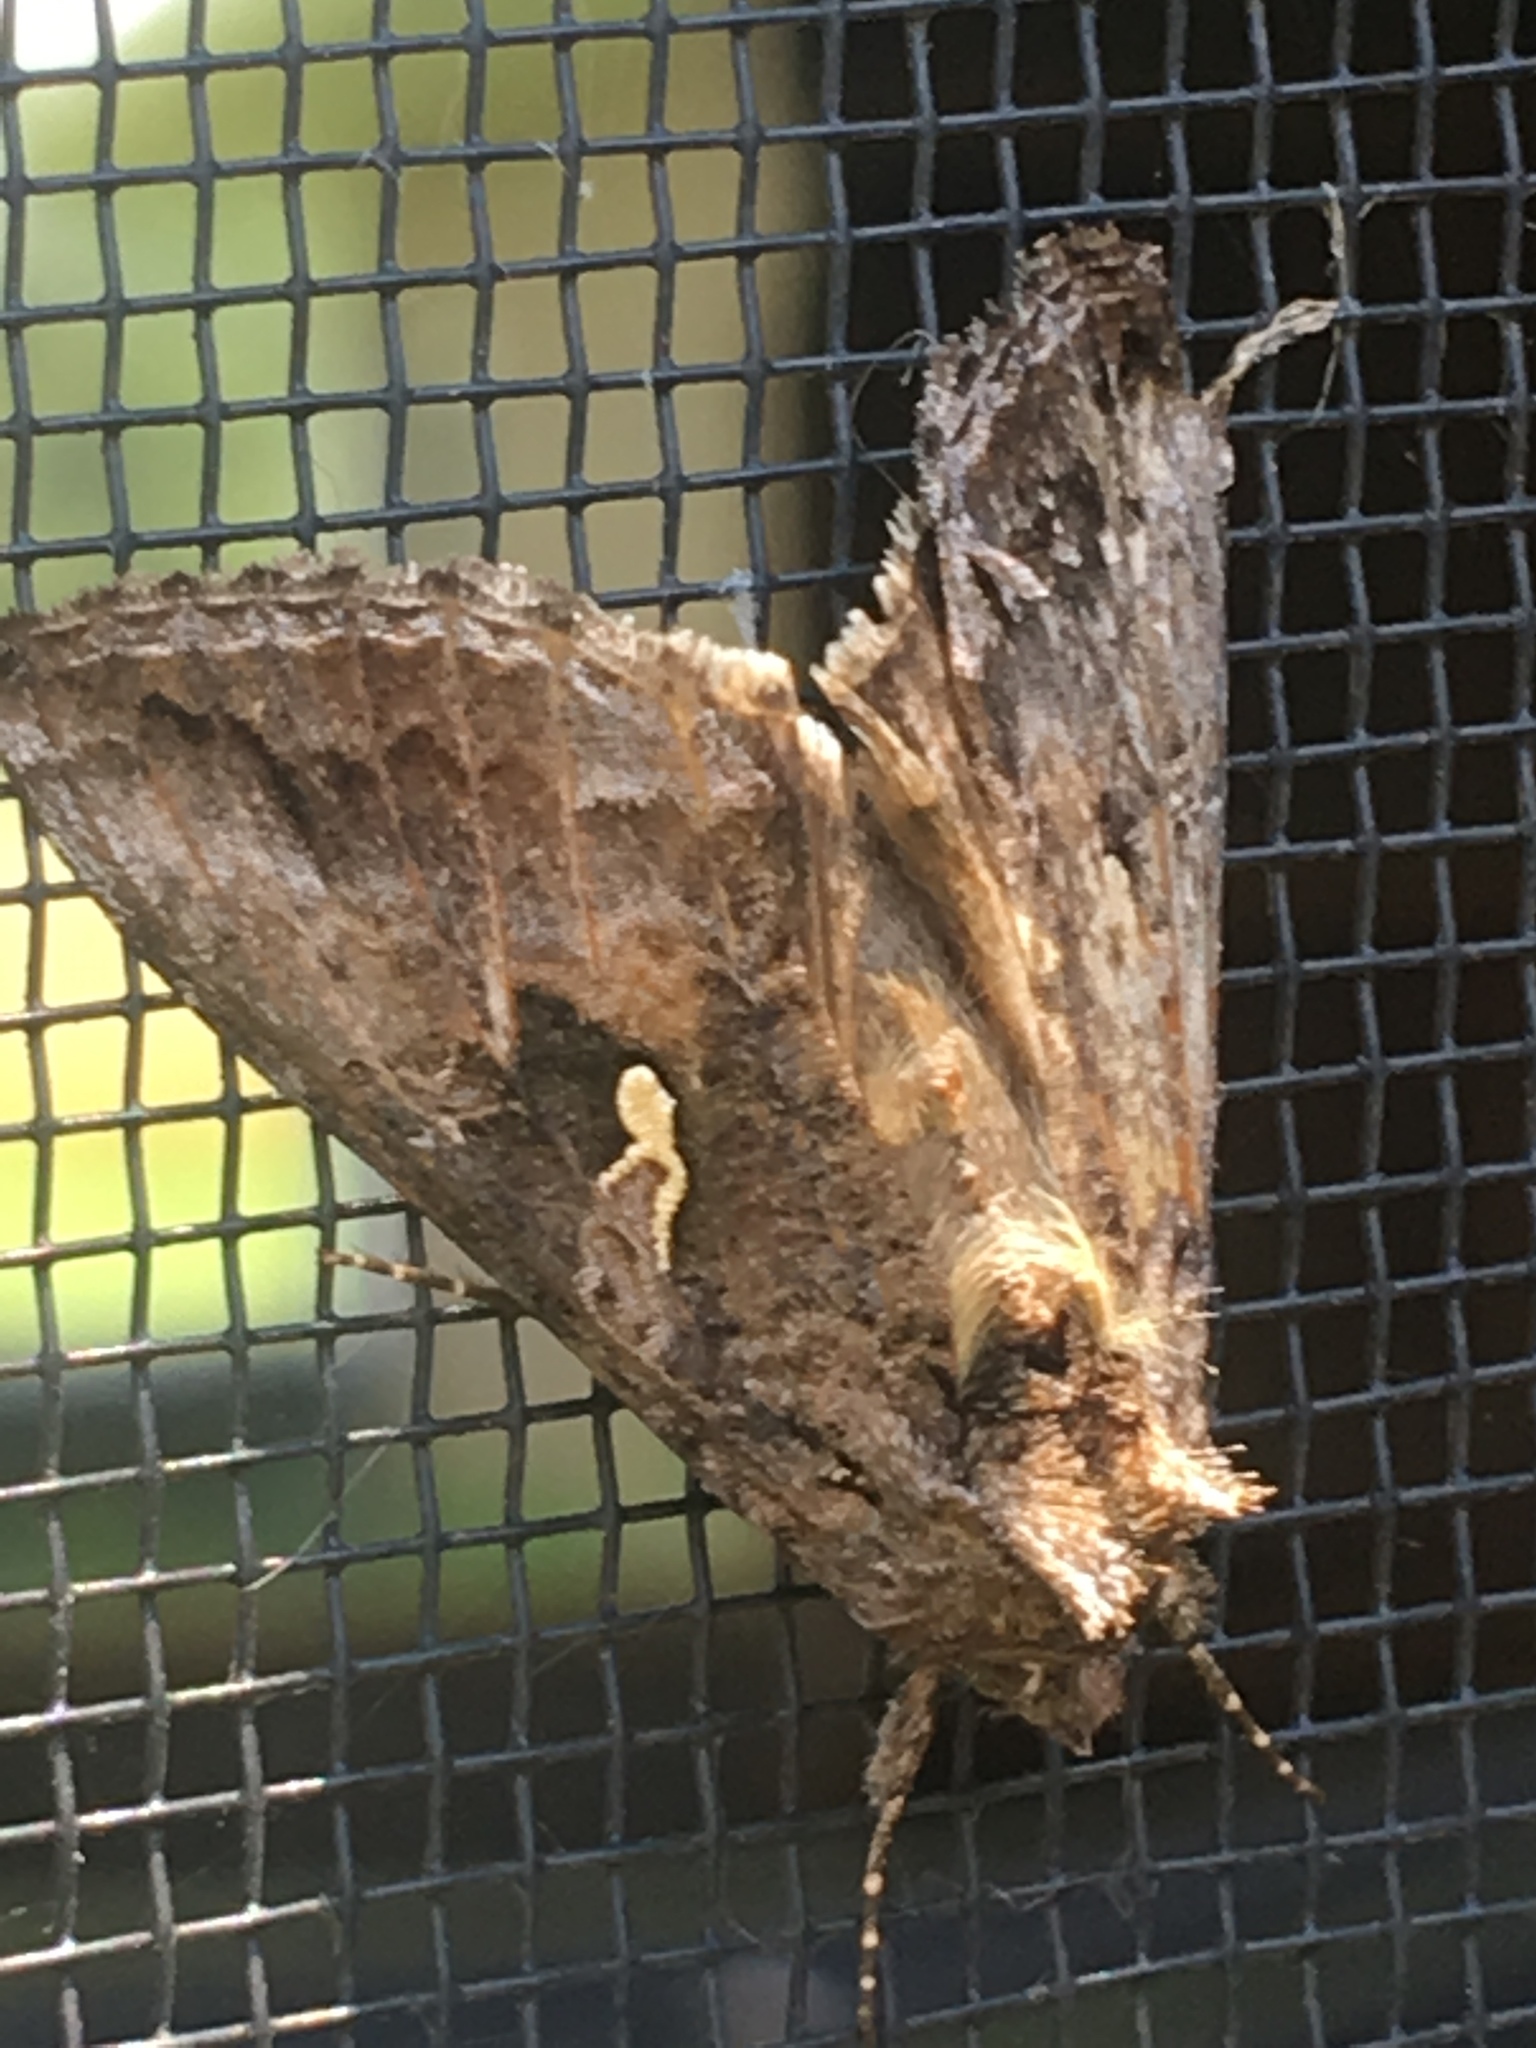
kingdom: Animalia
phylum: Arthropoda
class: Insecta
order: Lepidoptera
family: Noctuidae
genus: Rachiplusia
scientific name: Rachiplusia ou
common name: Gray looper moth
